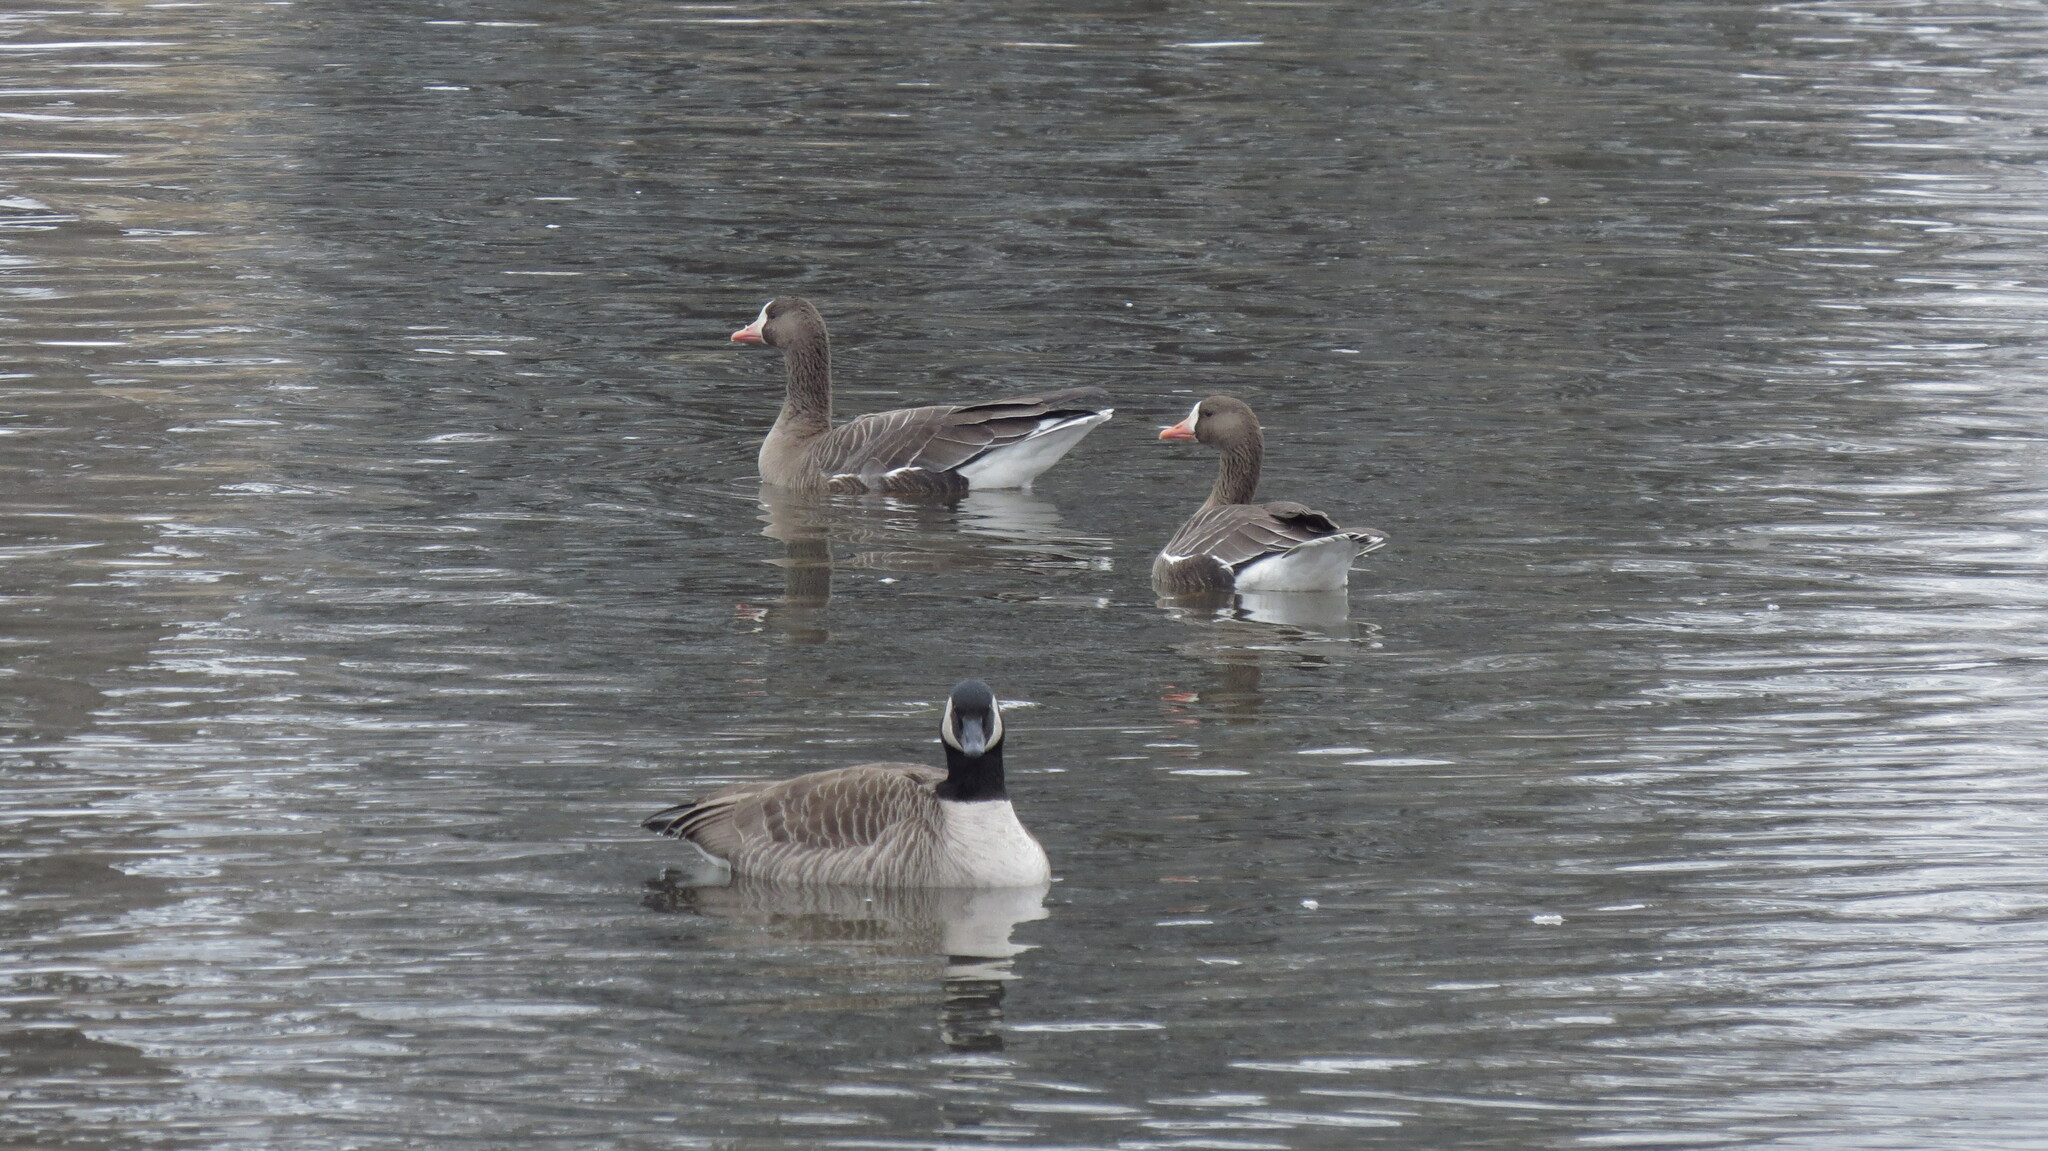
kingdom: Animalia
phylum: Chordata
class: Aves
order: Anseriformes
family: Anatidae
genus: Anser
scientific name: Anser albifrons
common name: Greater white-fronted goose
